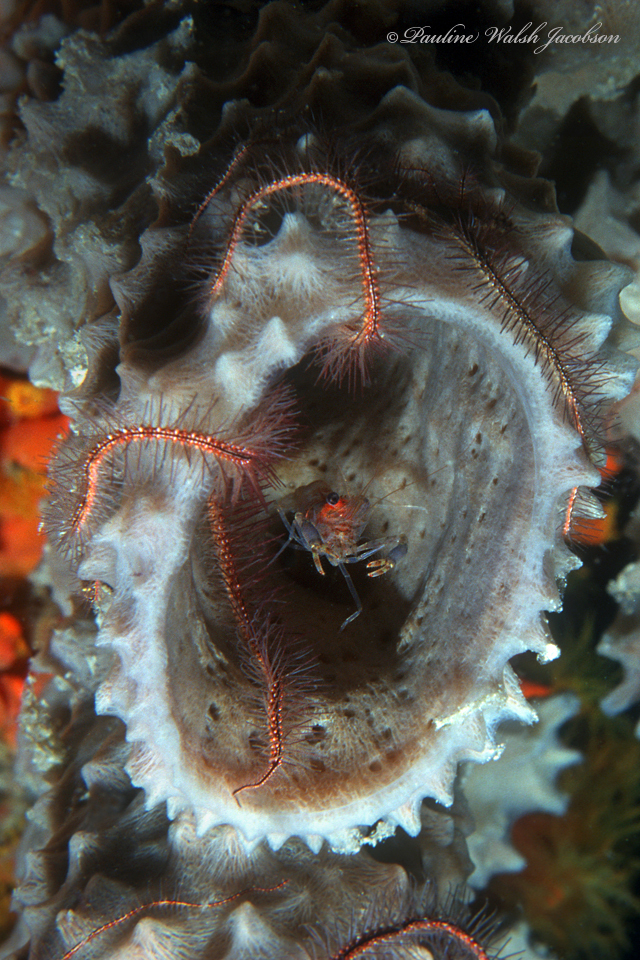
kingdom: Animalia
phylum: Arthropoda
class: Malacostraca
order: Decapoda
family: Palaemonidae
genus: Brachycarpus
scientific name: Brachycarpus biunguiculatus
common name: Two-clawed shrimp
